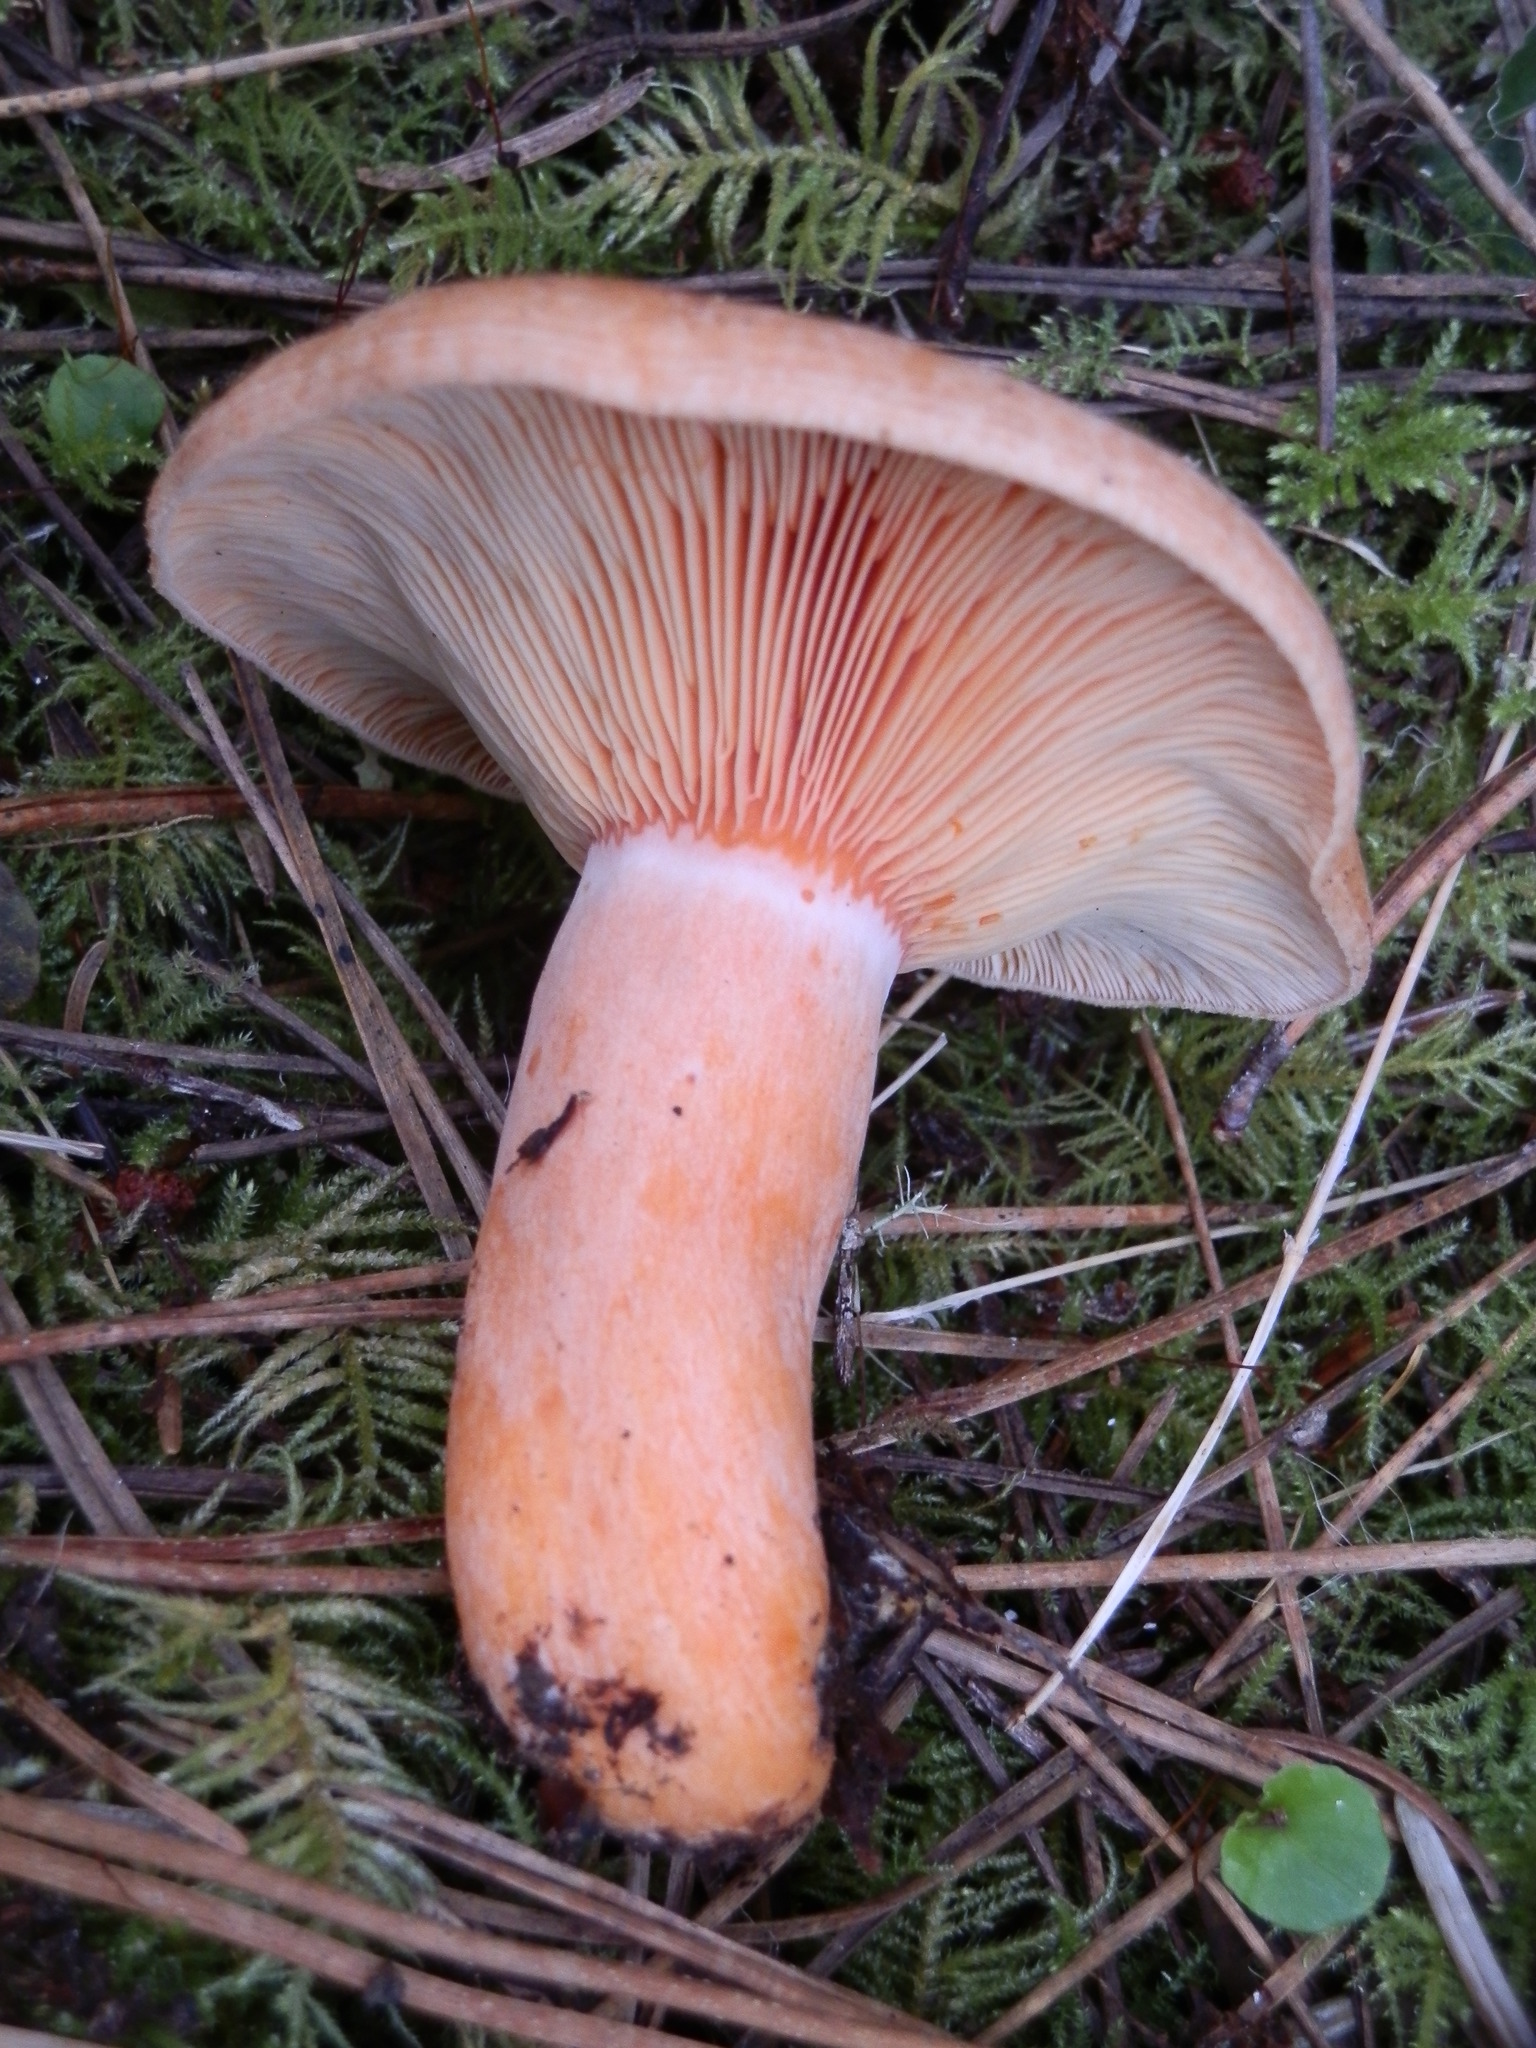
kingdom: Fungi
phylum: Basidiomycota
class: Agaricomycetes
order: Russulales
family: Russulaceae
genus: Lactarius
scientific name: Lactarius deliciosus
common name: Saffron milk-cap
